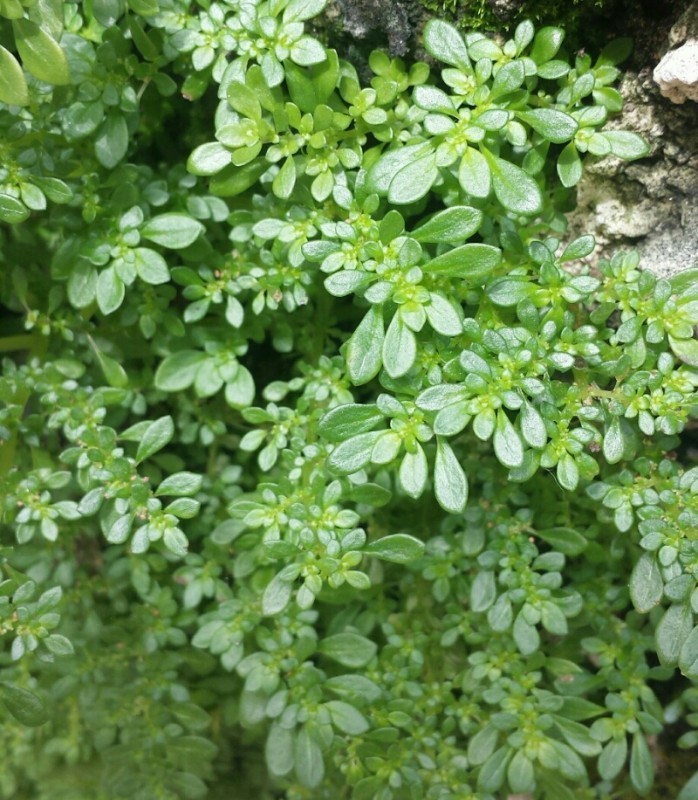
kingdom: Plantae
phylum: Tracheophyta
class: Magnoliopsida
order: Rosales
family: Urticaceae
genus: Pilea
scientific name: Pilea microphylla
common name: Artillery-plant
